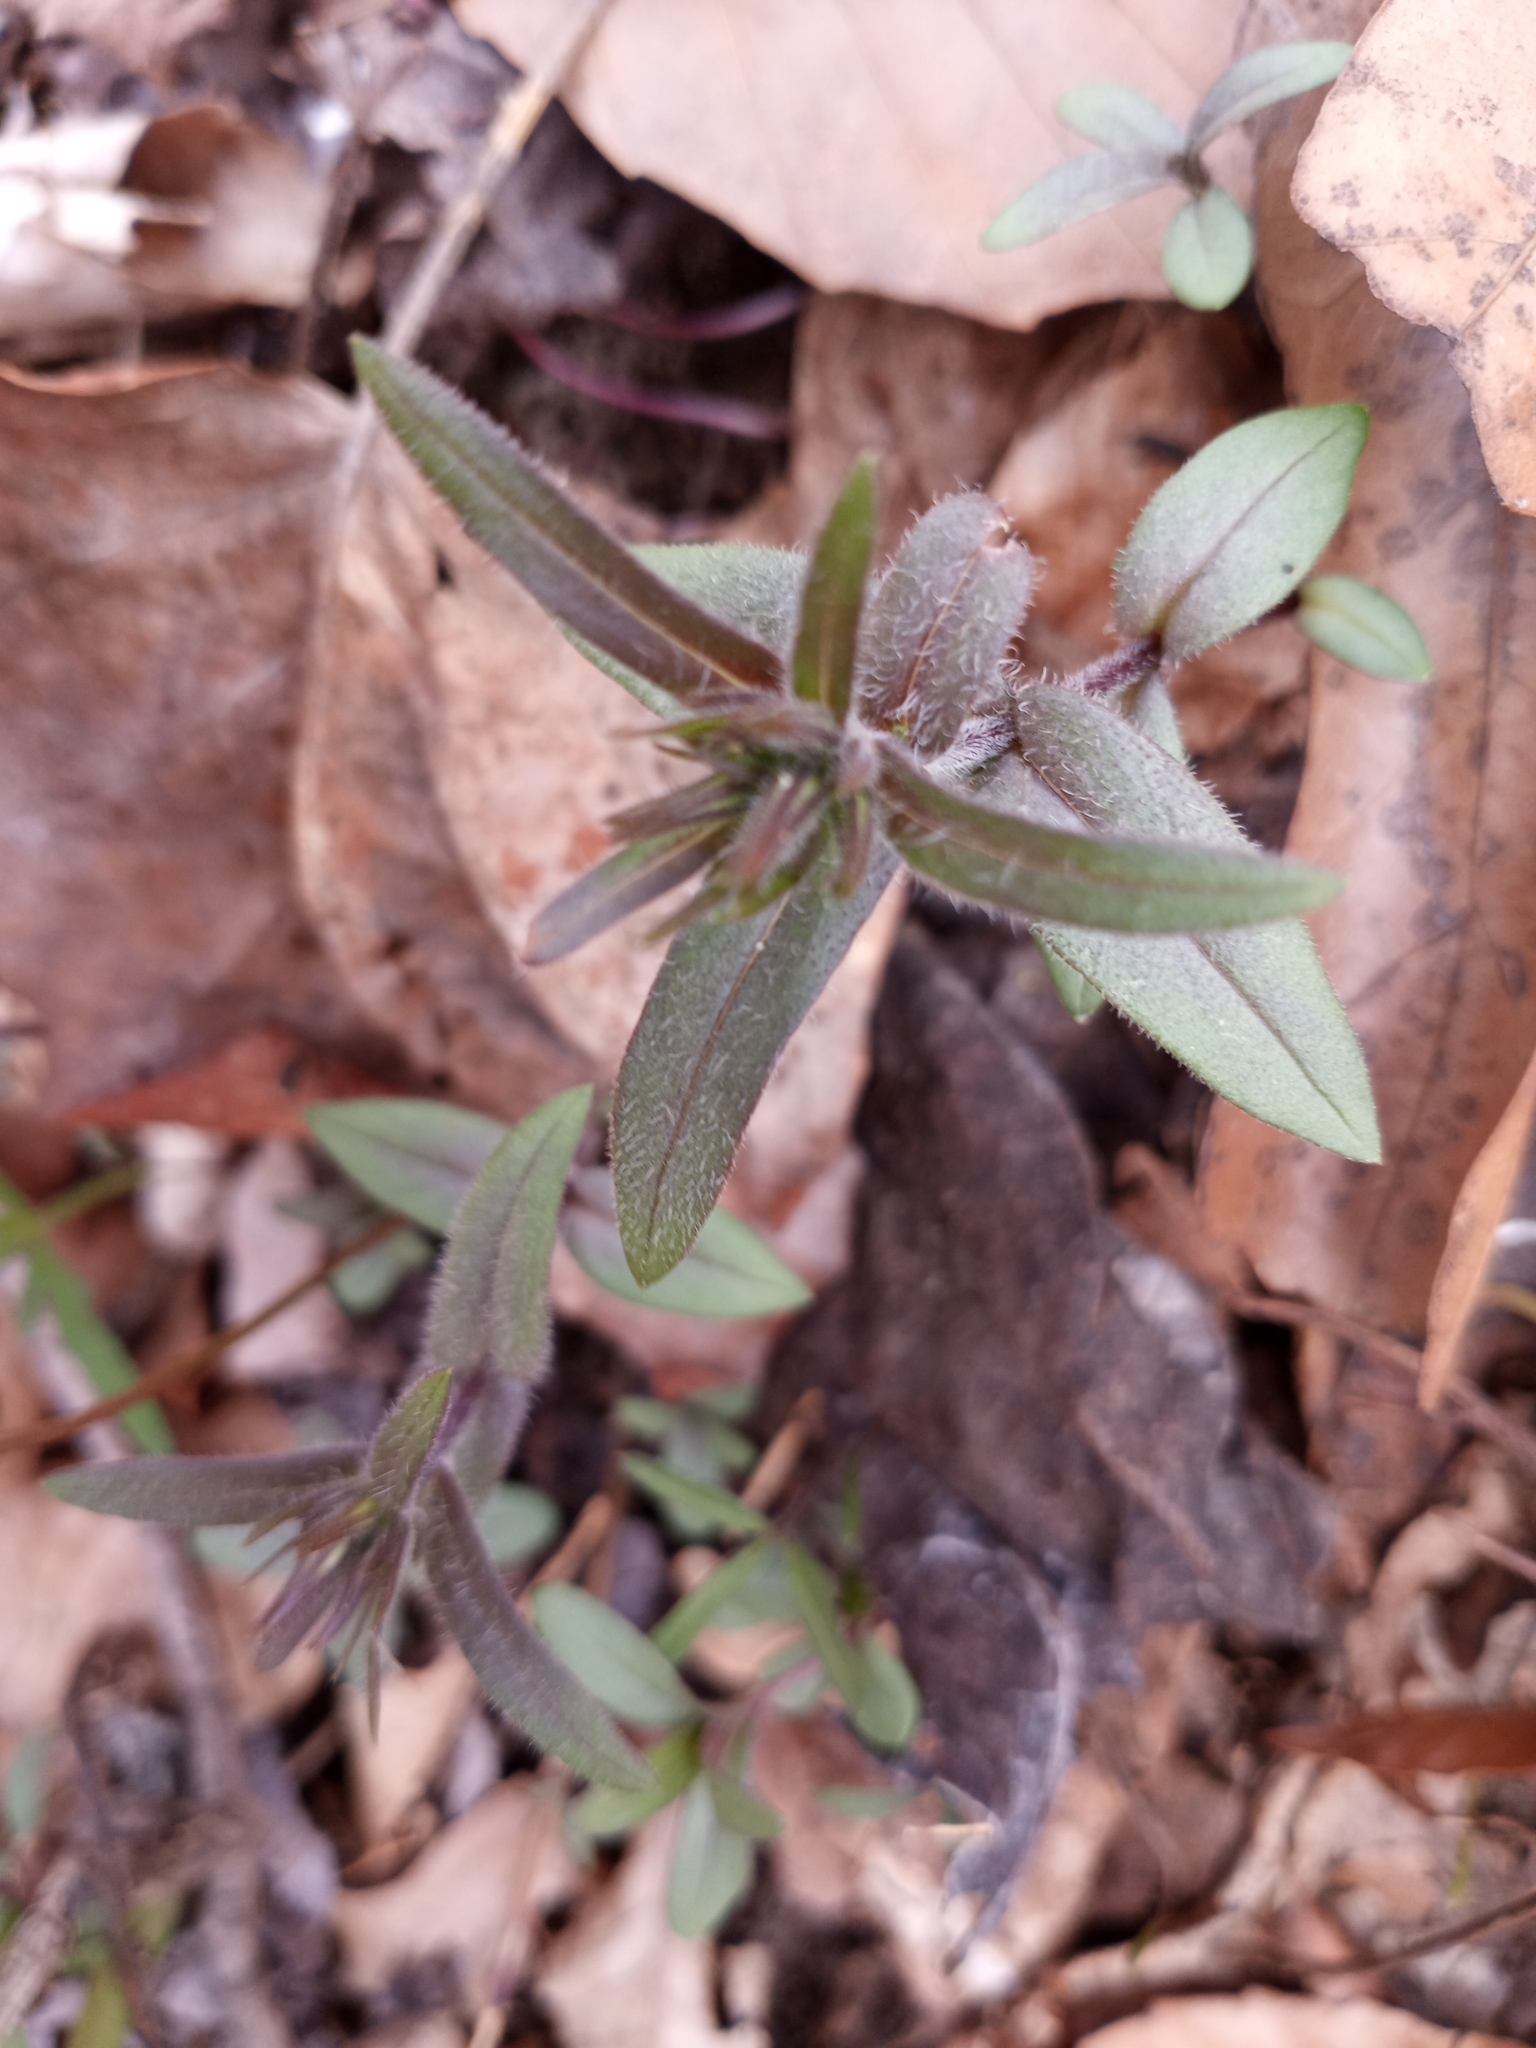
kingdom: Plantae
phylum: Tracheophyta
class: Magnoliopsida
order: Ericales
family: Polemoniaceae
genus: Phlox
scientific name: Phlox divaricata
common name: Blue phlox
